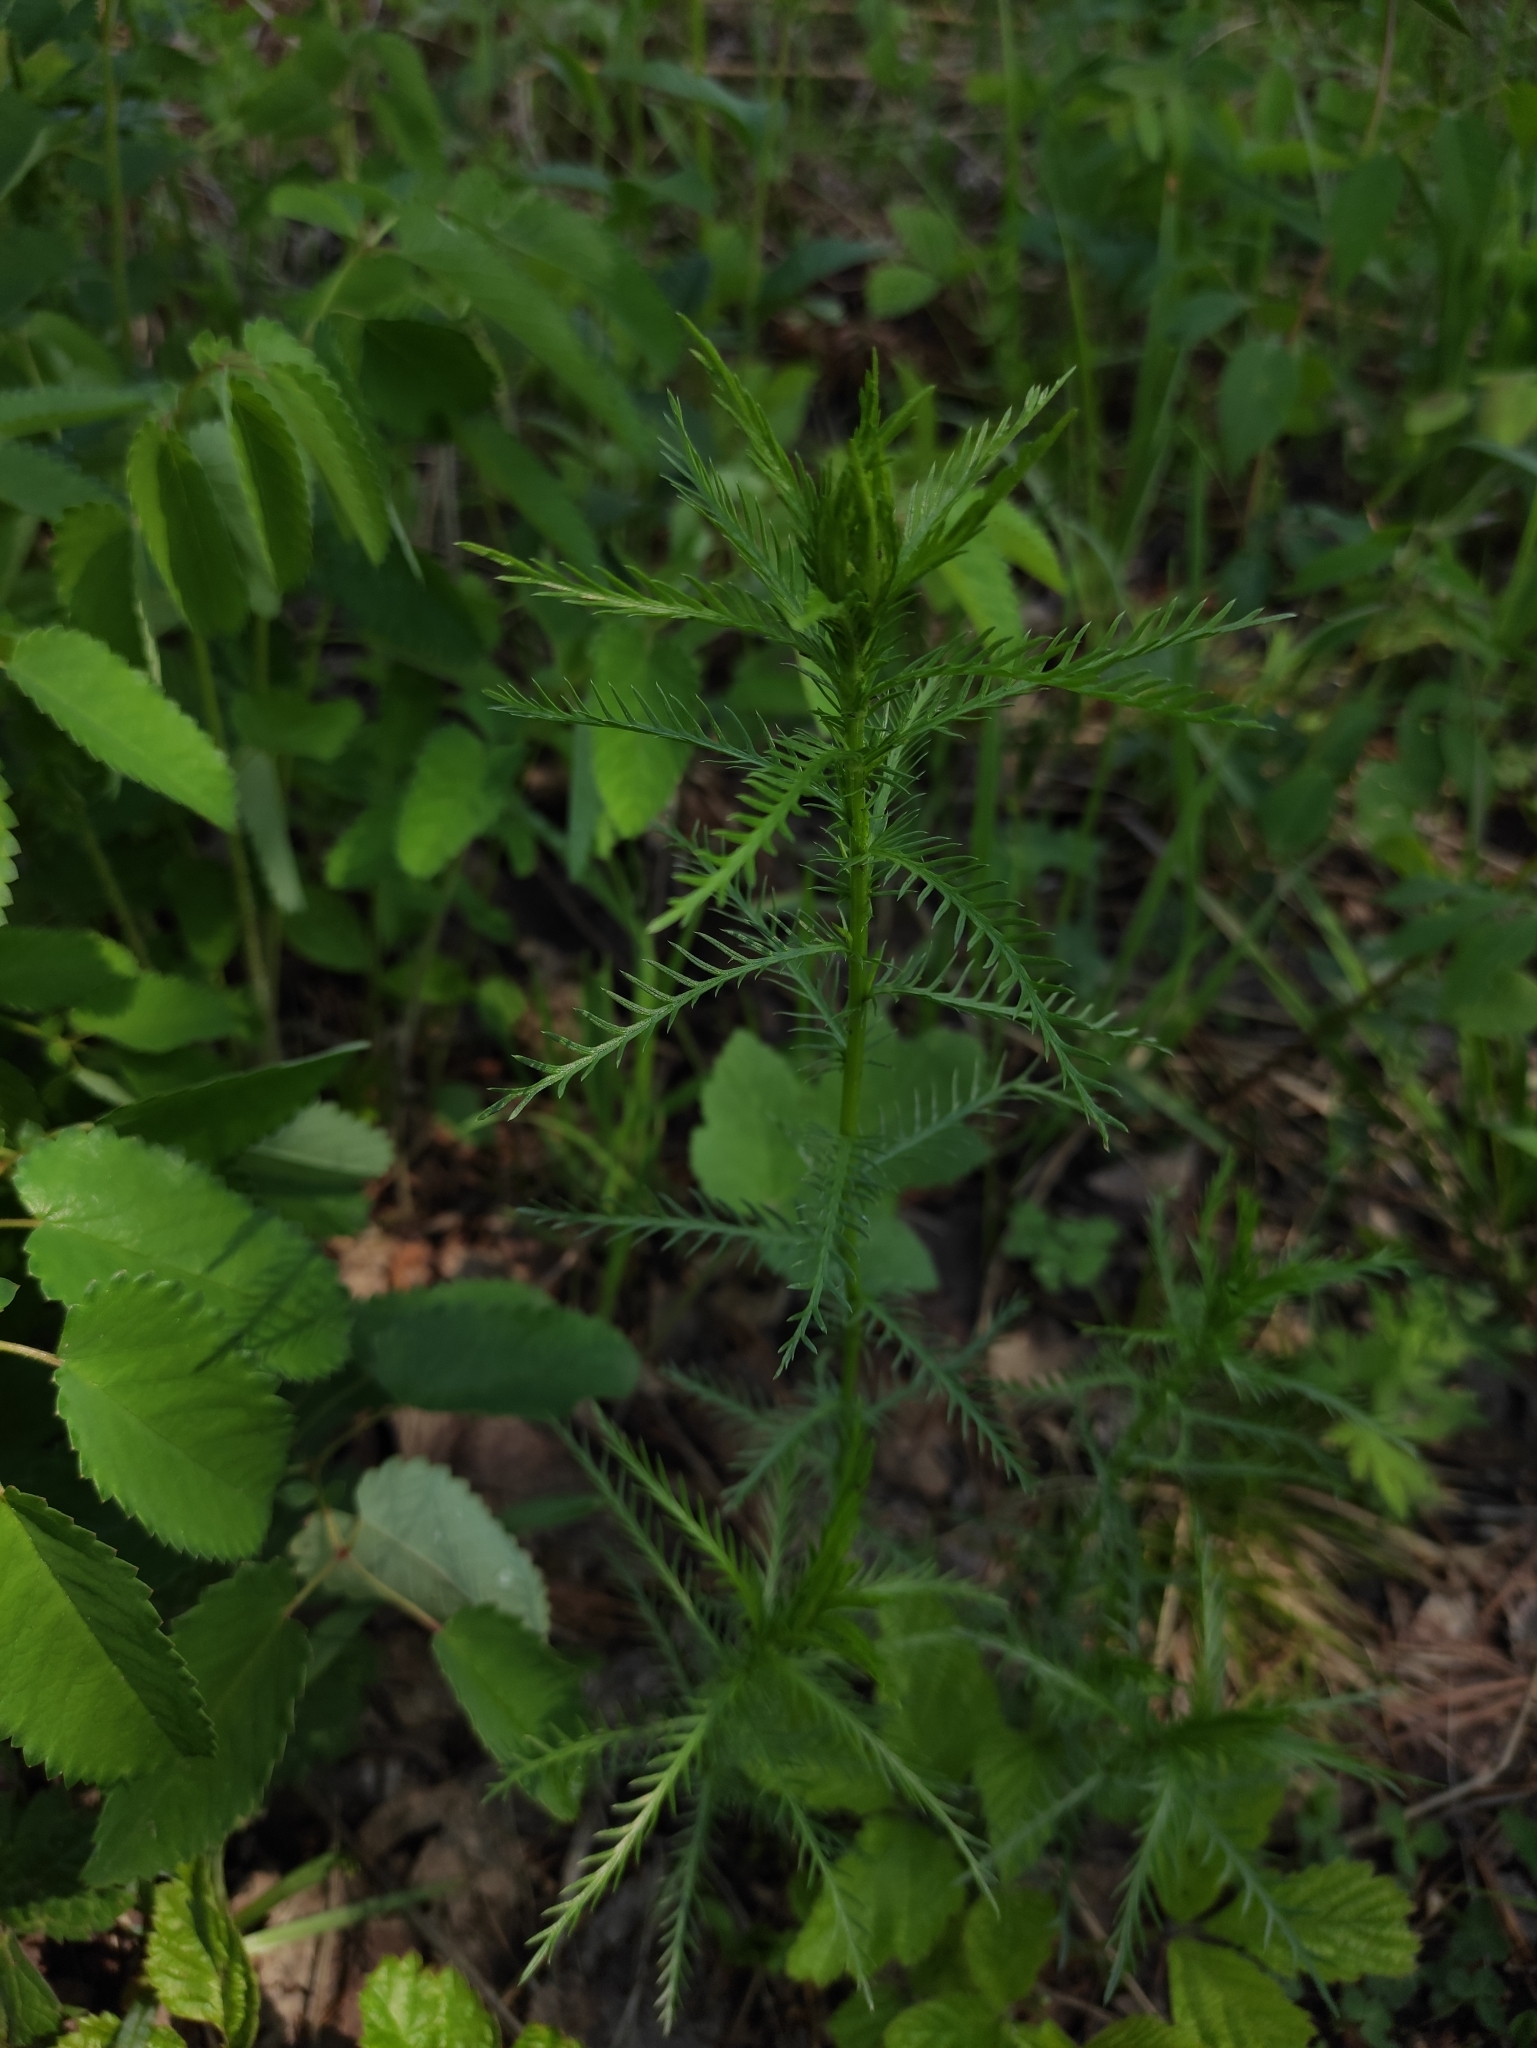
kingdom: Plantae
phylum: Tracheophyta
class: Magnoliopsida
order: Asterales
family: Asteraceae
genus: Achillea
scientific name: Achillea impatiens
